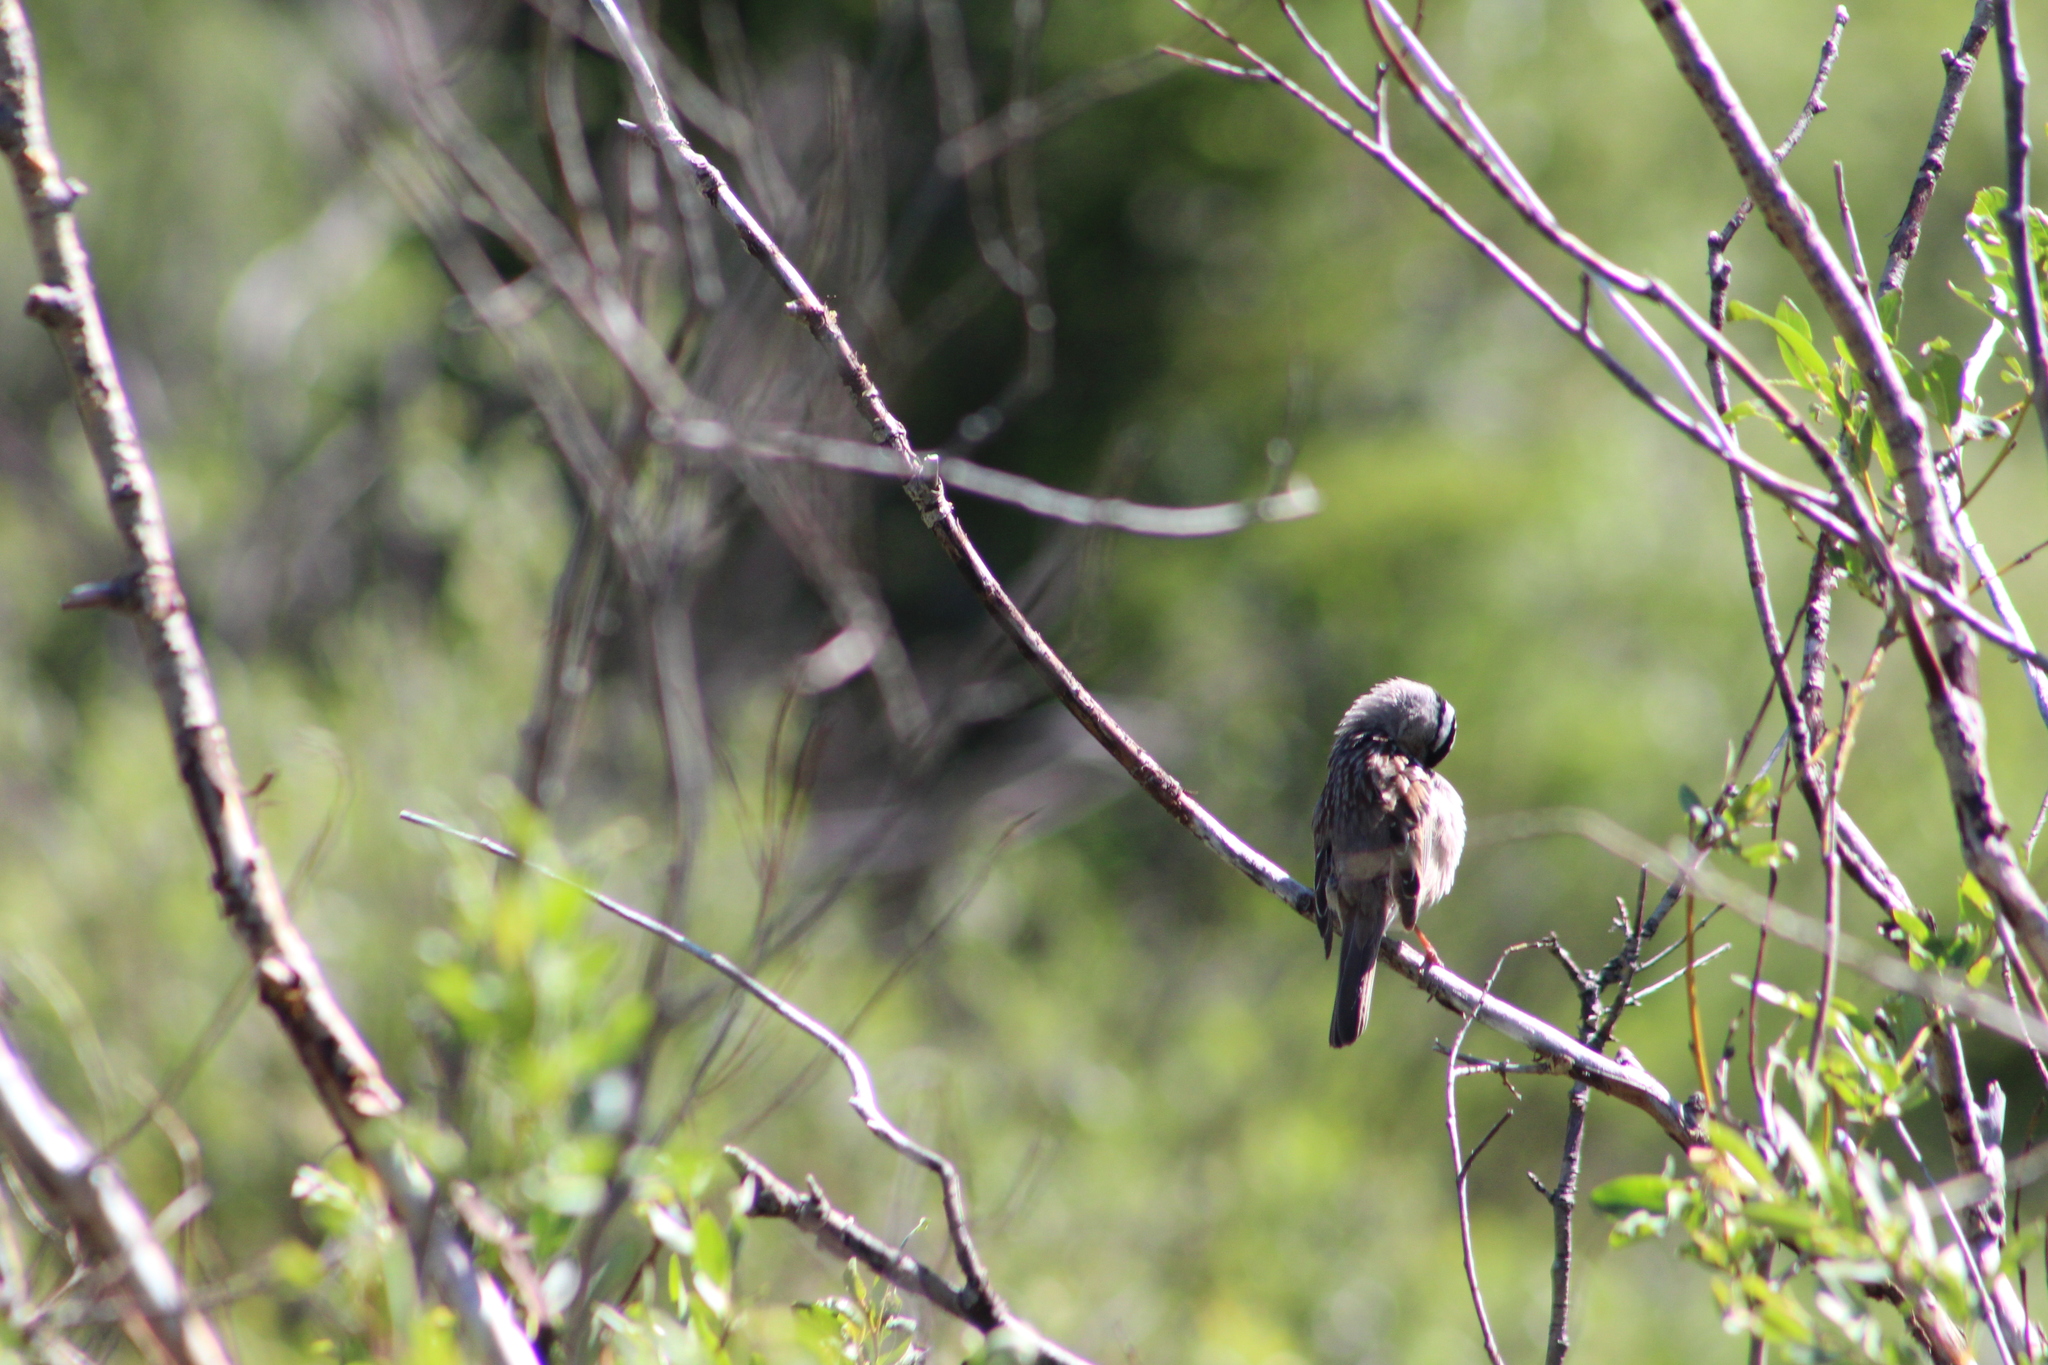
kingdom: Animalia
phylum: Chordata
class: Aves
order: Passeriformes
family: Passerellidae
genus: Zonotrichia
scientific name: Zonotrichia leucophrys
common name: White-crowned sparrow
